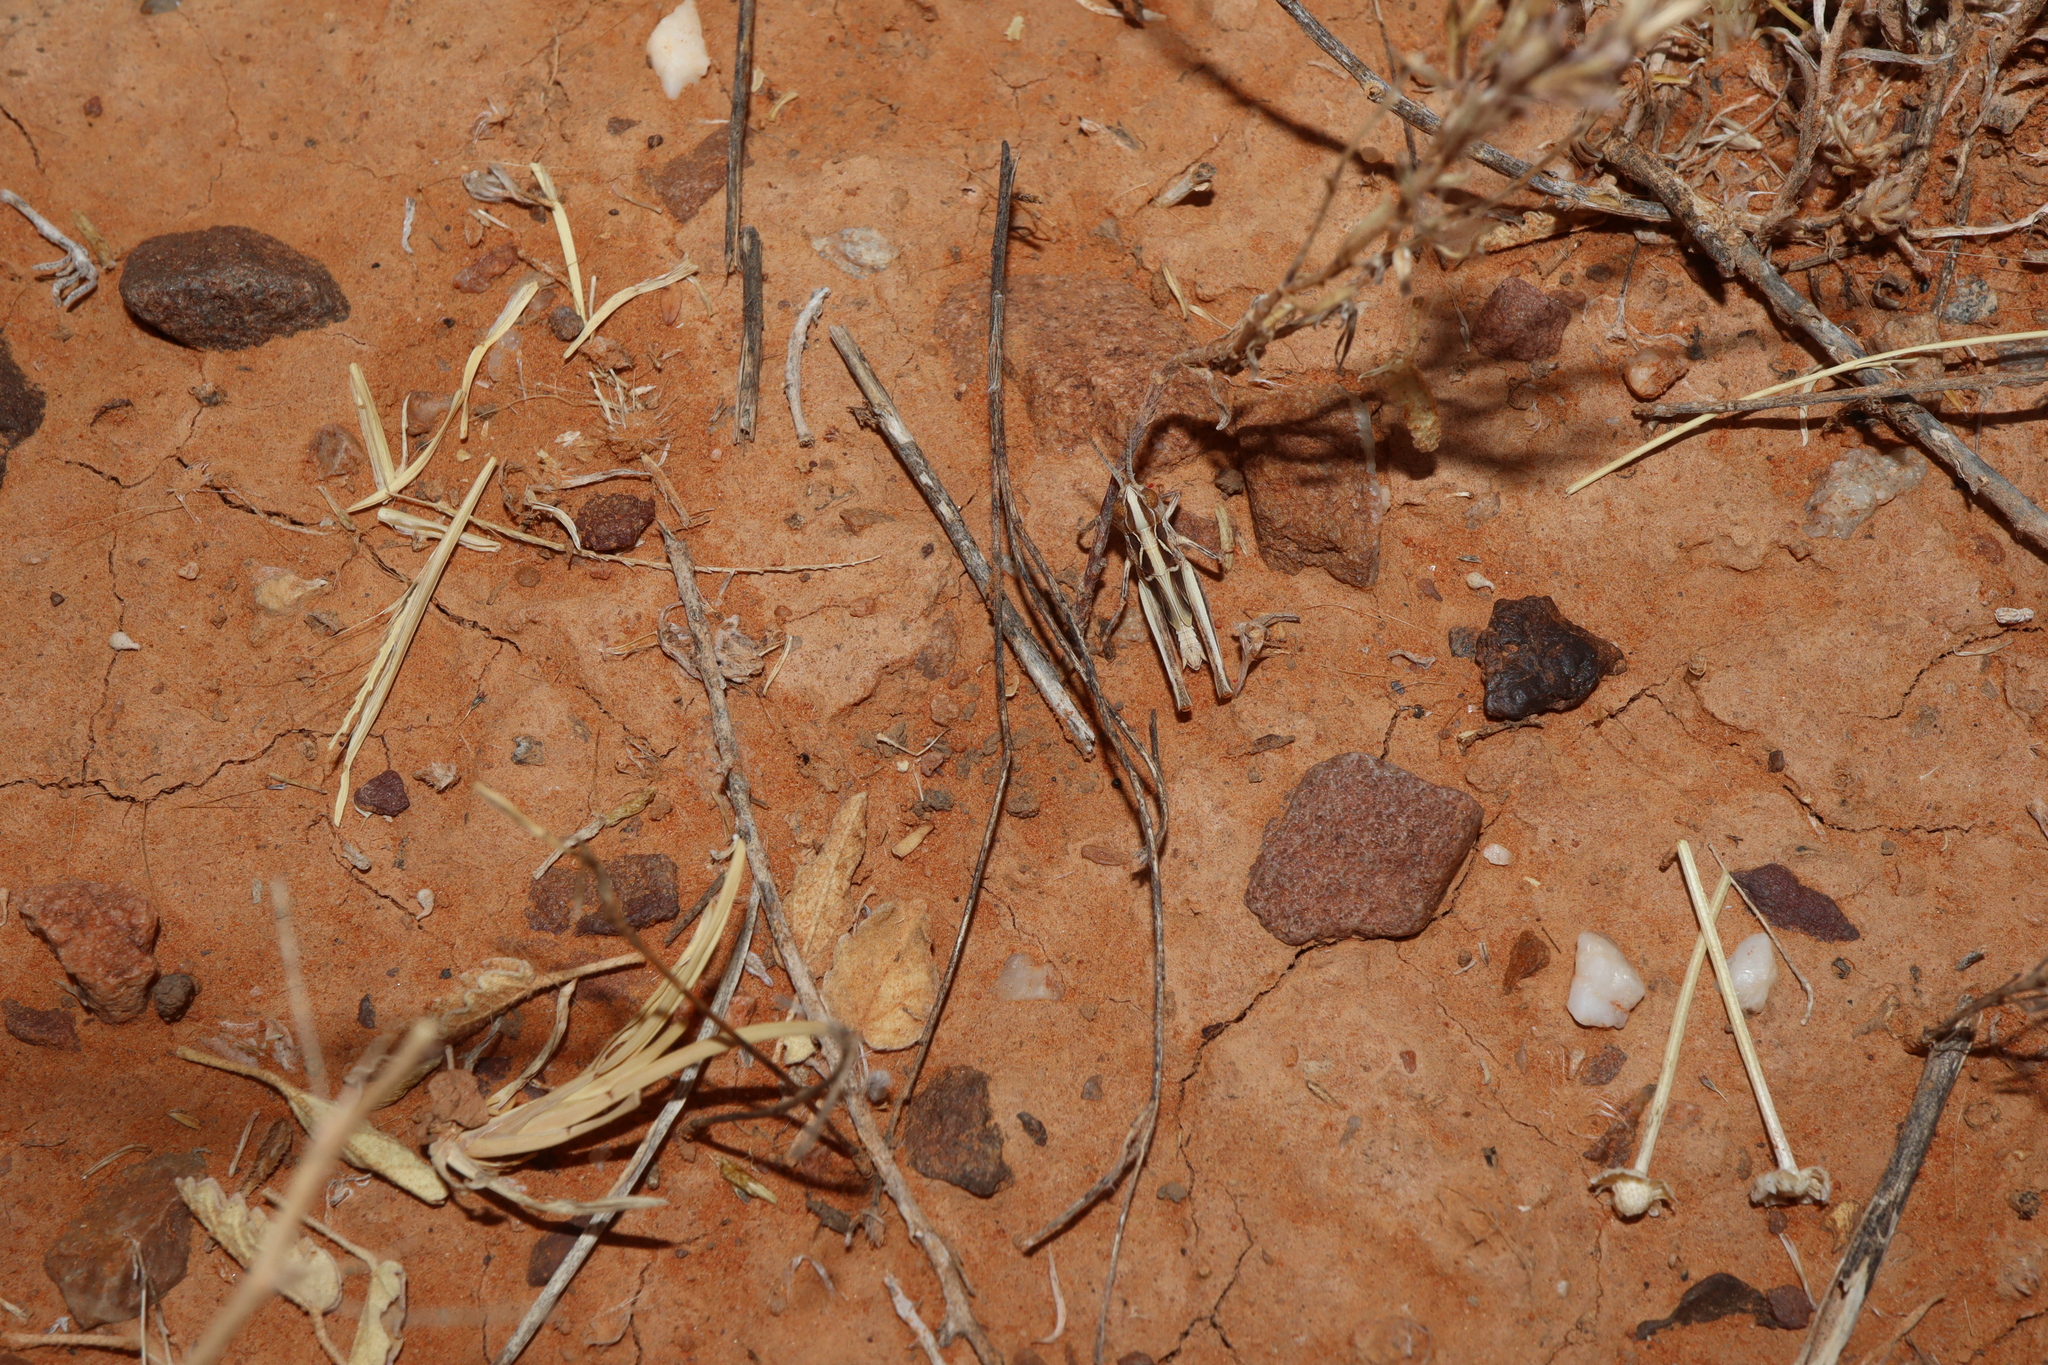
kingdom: Animalia
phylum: Arthropoda
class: Insecta
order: Orthoptera
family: Acrididae
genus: Chortoicetes
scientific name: Chortoicetes terminifera
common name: Australian plague locust
